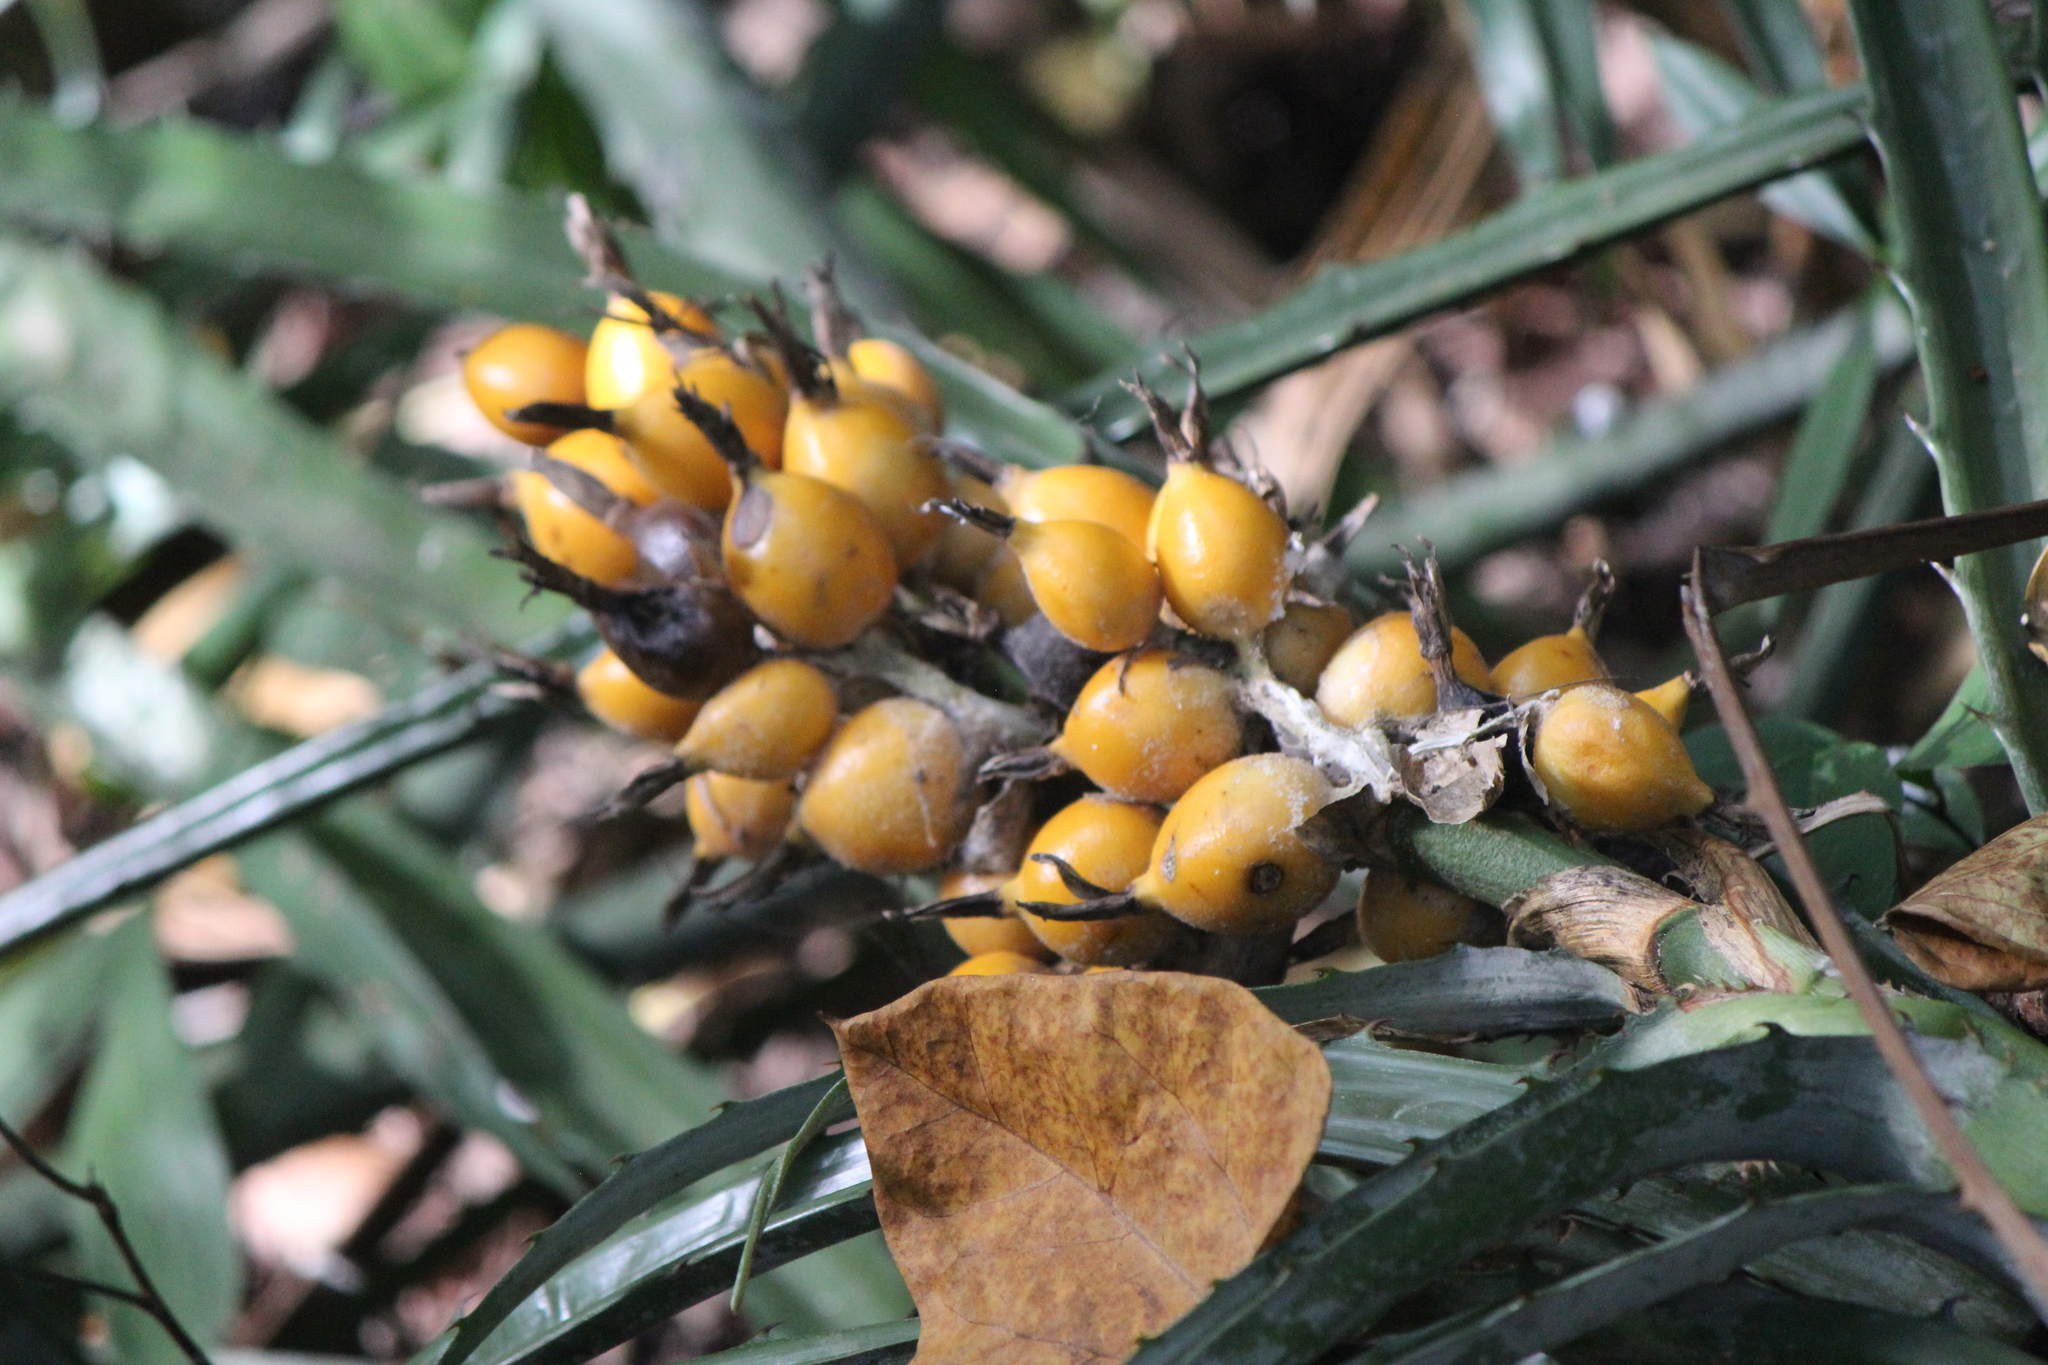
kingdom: Plantae
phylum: Tracheophyta
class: Liliopsida
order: Poales
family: Bromeliaceae
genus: Bromelia
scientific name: Bromelia pinguin
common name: Pinguin
